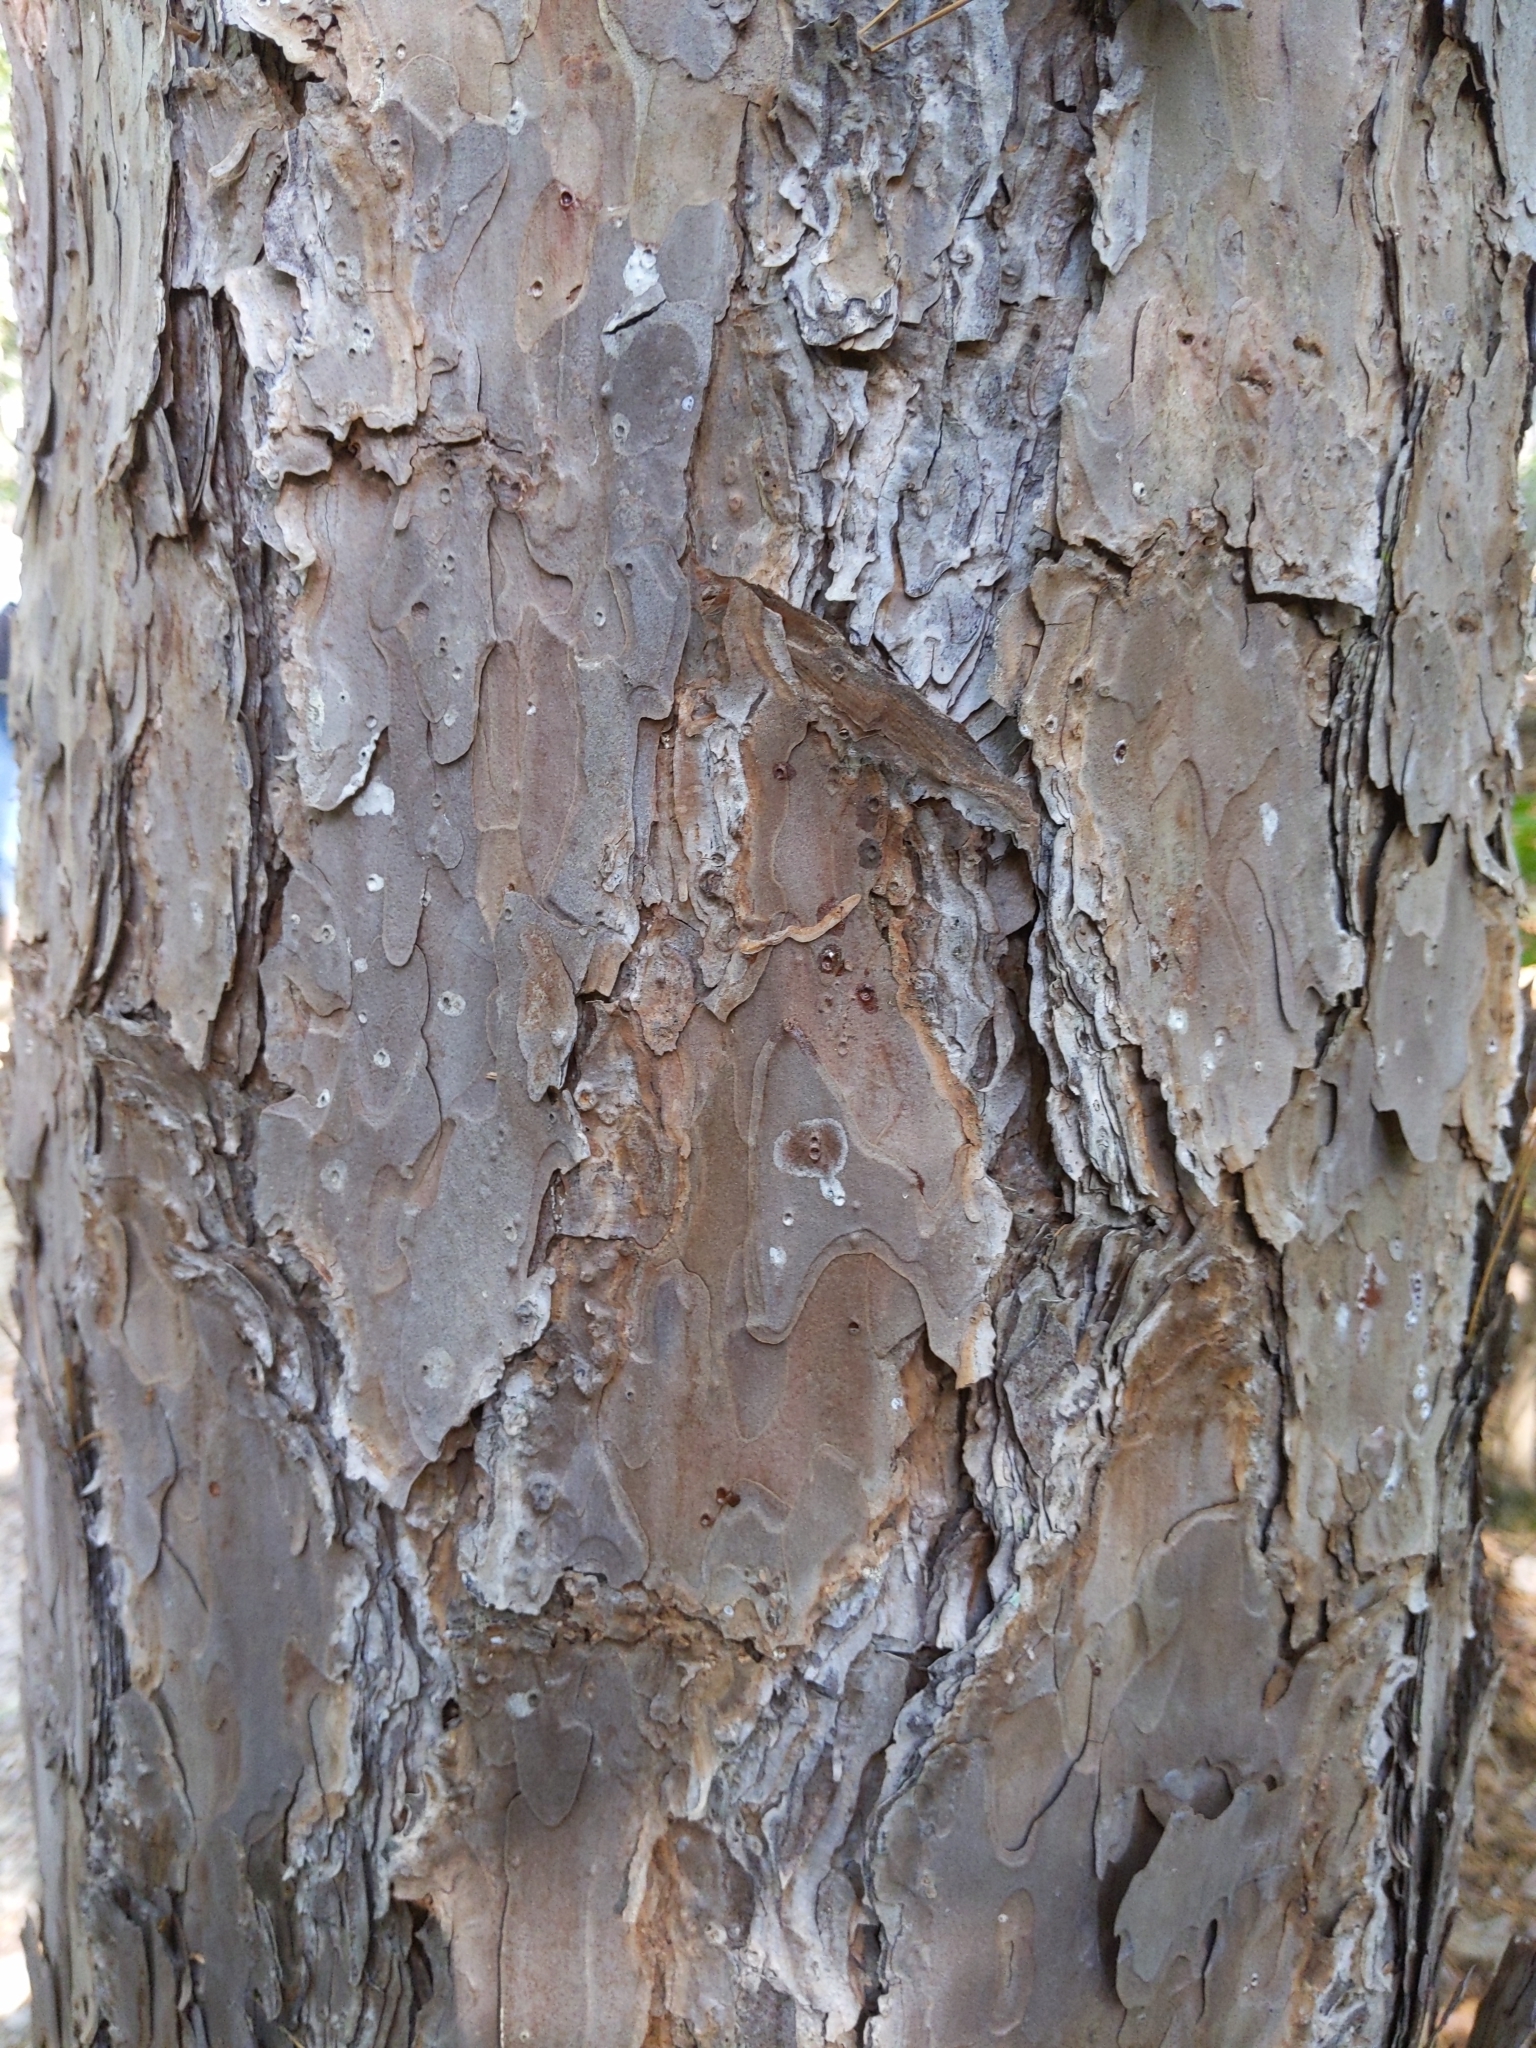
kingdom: Plantae
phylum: Tracheophyta
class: Pinopsida
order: Pinales
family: Pinaceae
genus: Pinus
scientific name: Pinus echinata
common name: Shortleaf pine
